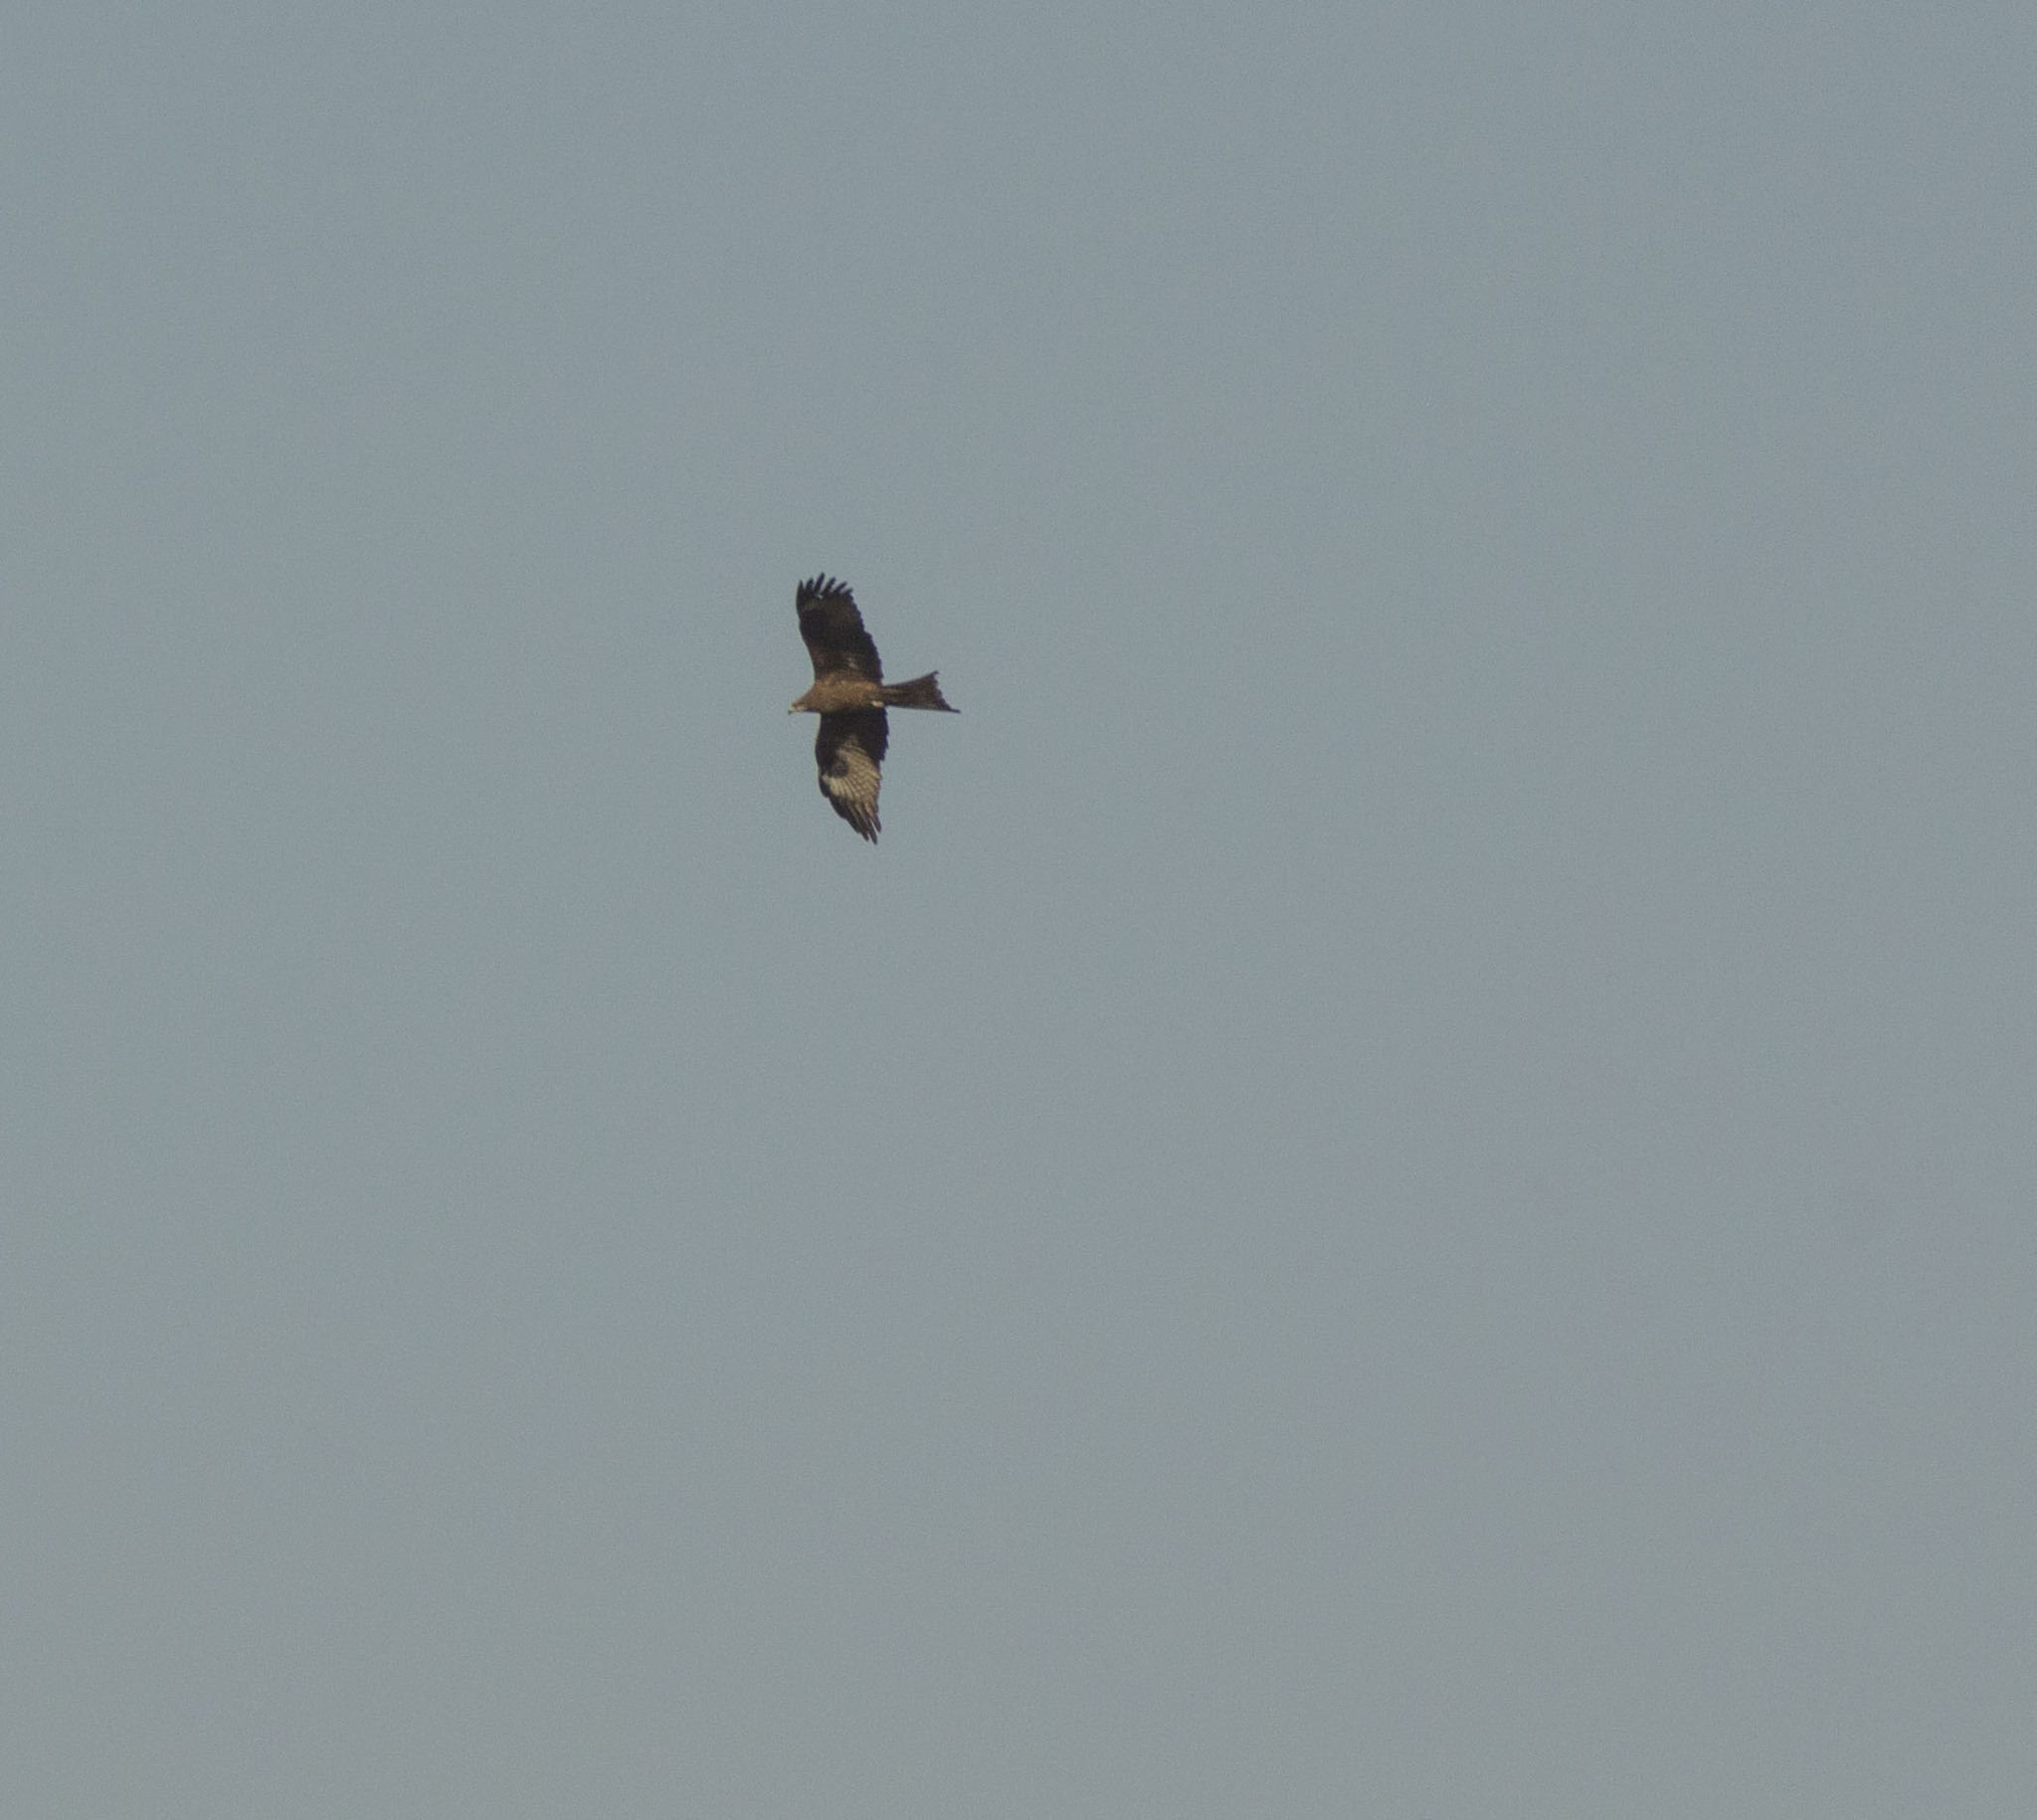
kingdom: Animalia
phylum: Chordata
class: Aves
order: Accipitriformes
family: Accipitridae
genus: Milvus
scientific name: Milvus migrans
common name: Black kite
